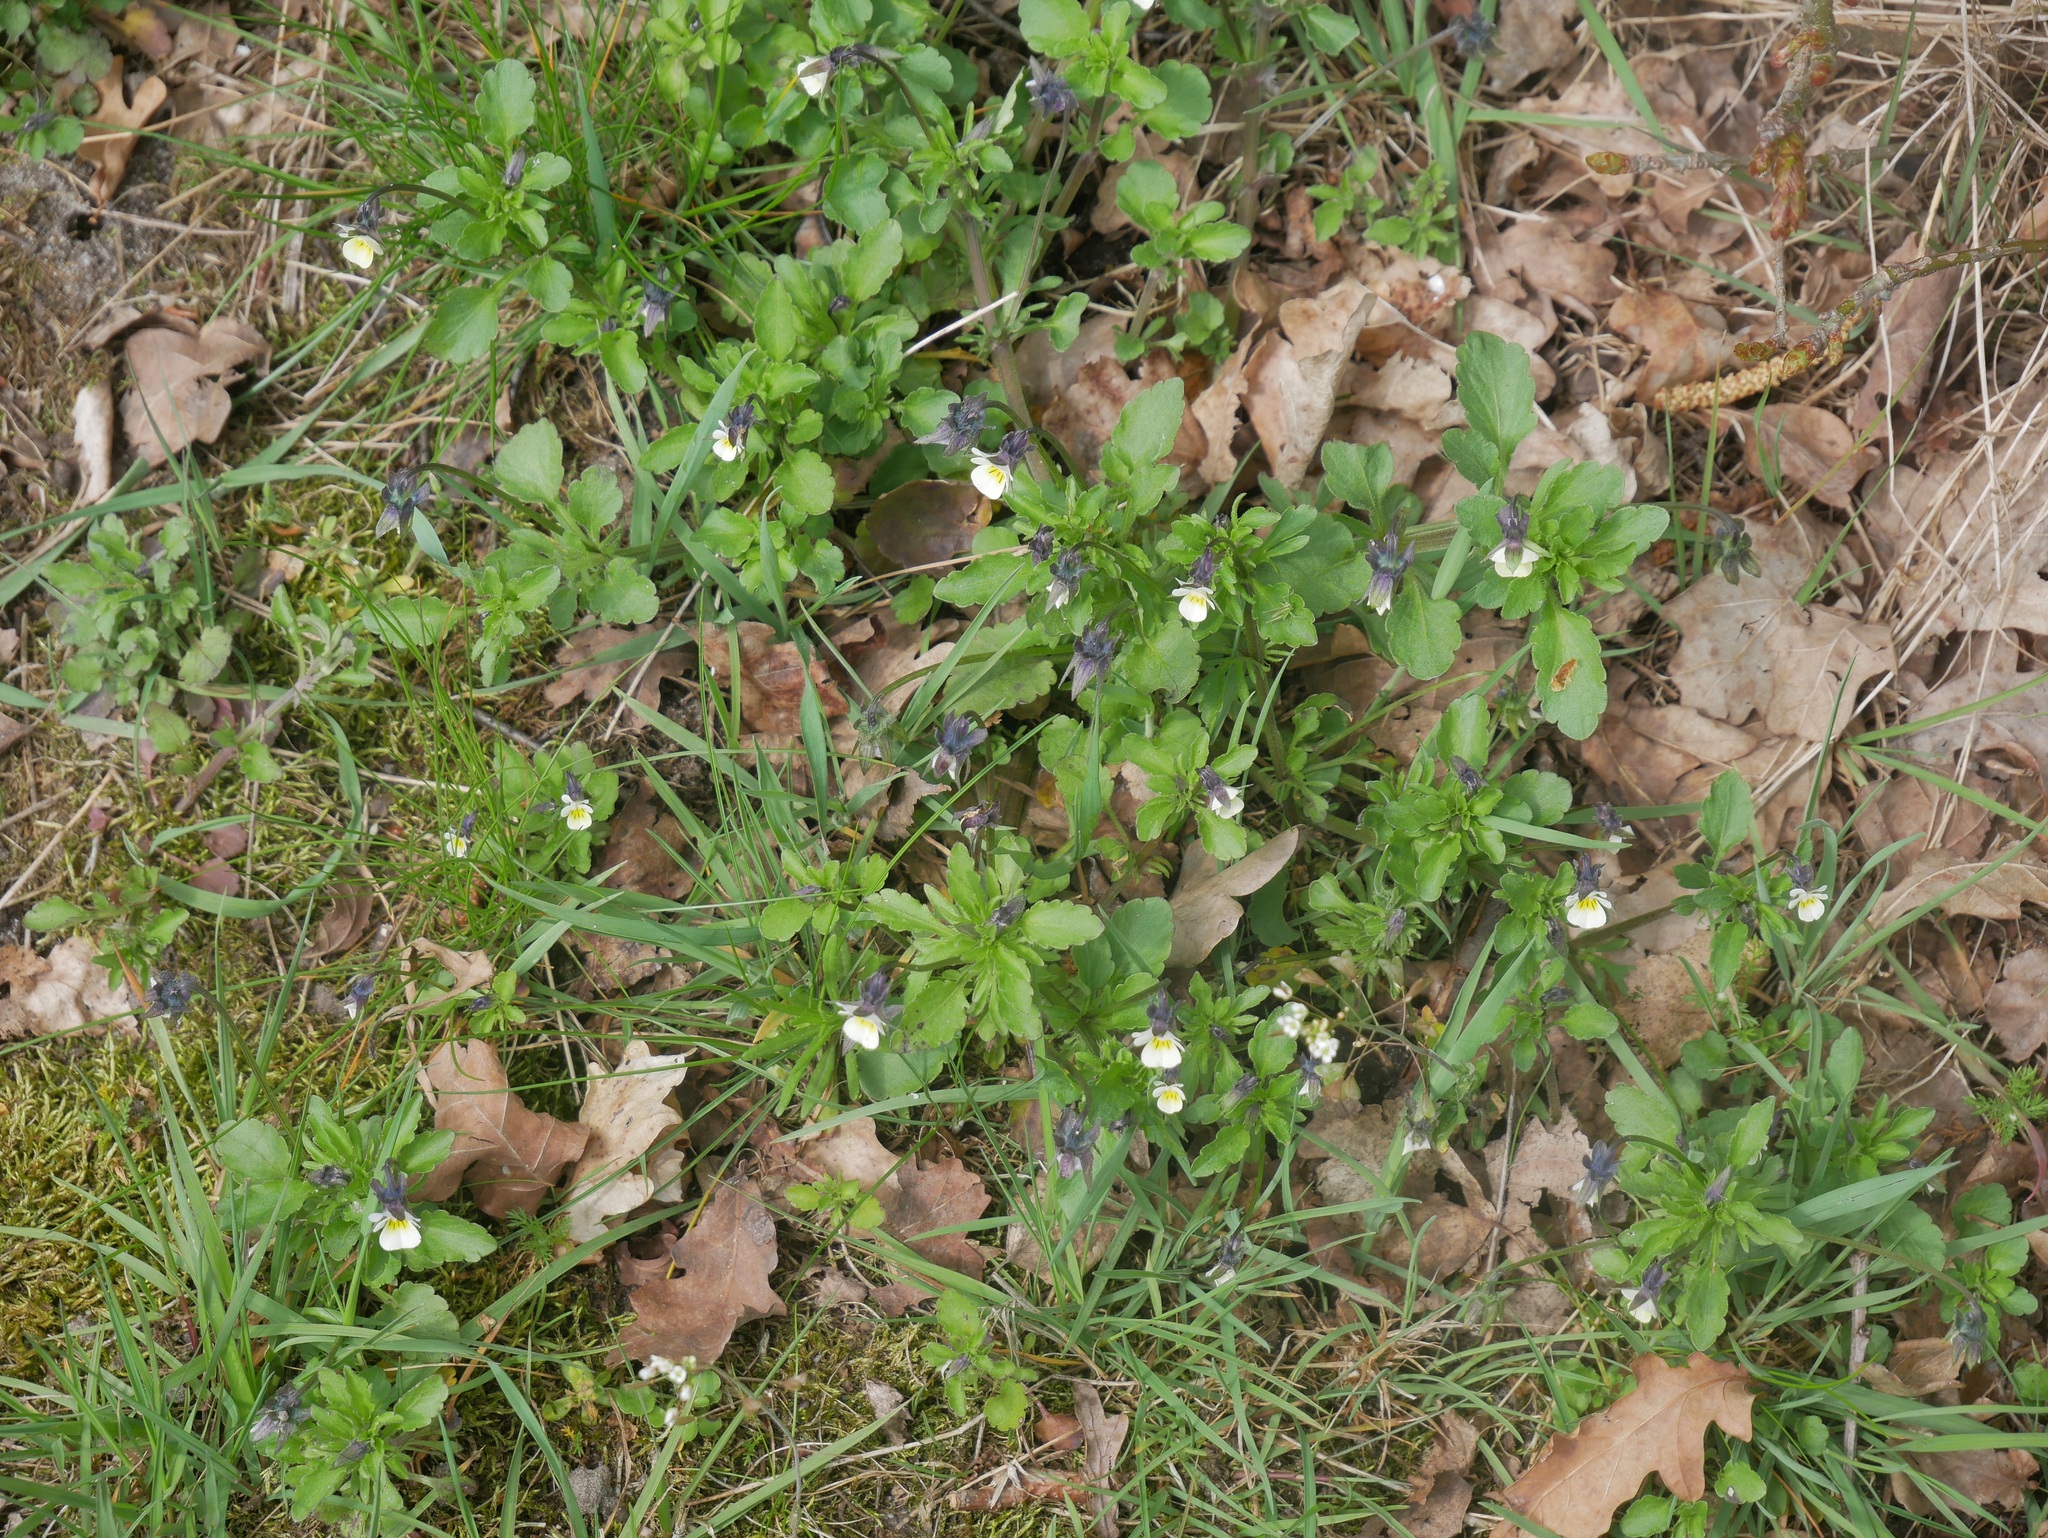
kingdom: Plantae
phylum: Tracheophyta
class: Magnoliopsida
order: Malpighiales
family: Violaceae
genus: Viola
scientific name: Viola arvensis
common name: Field pansy
